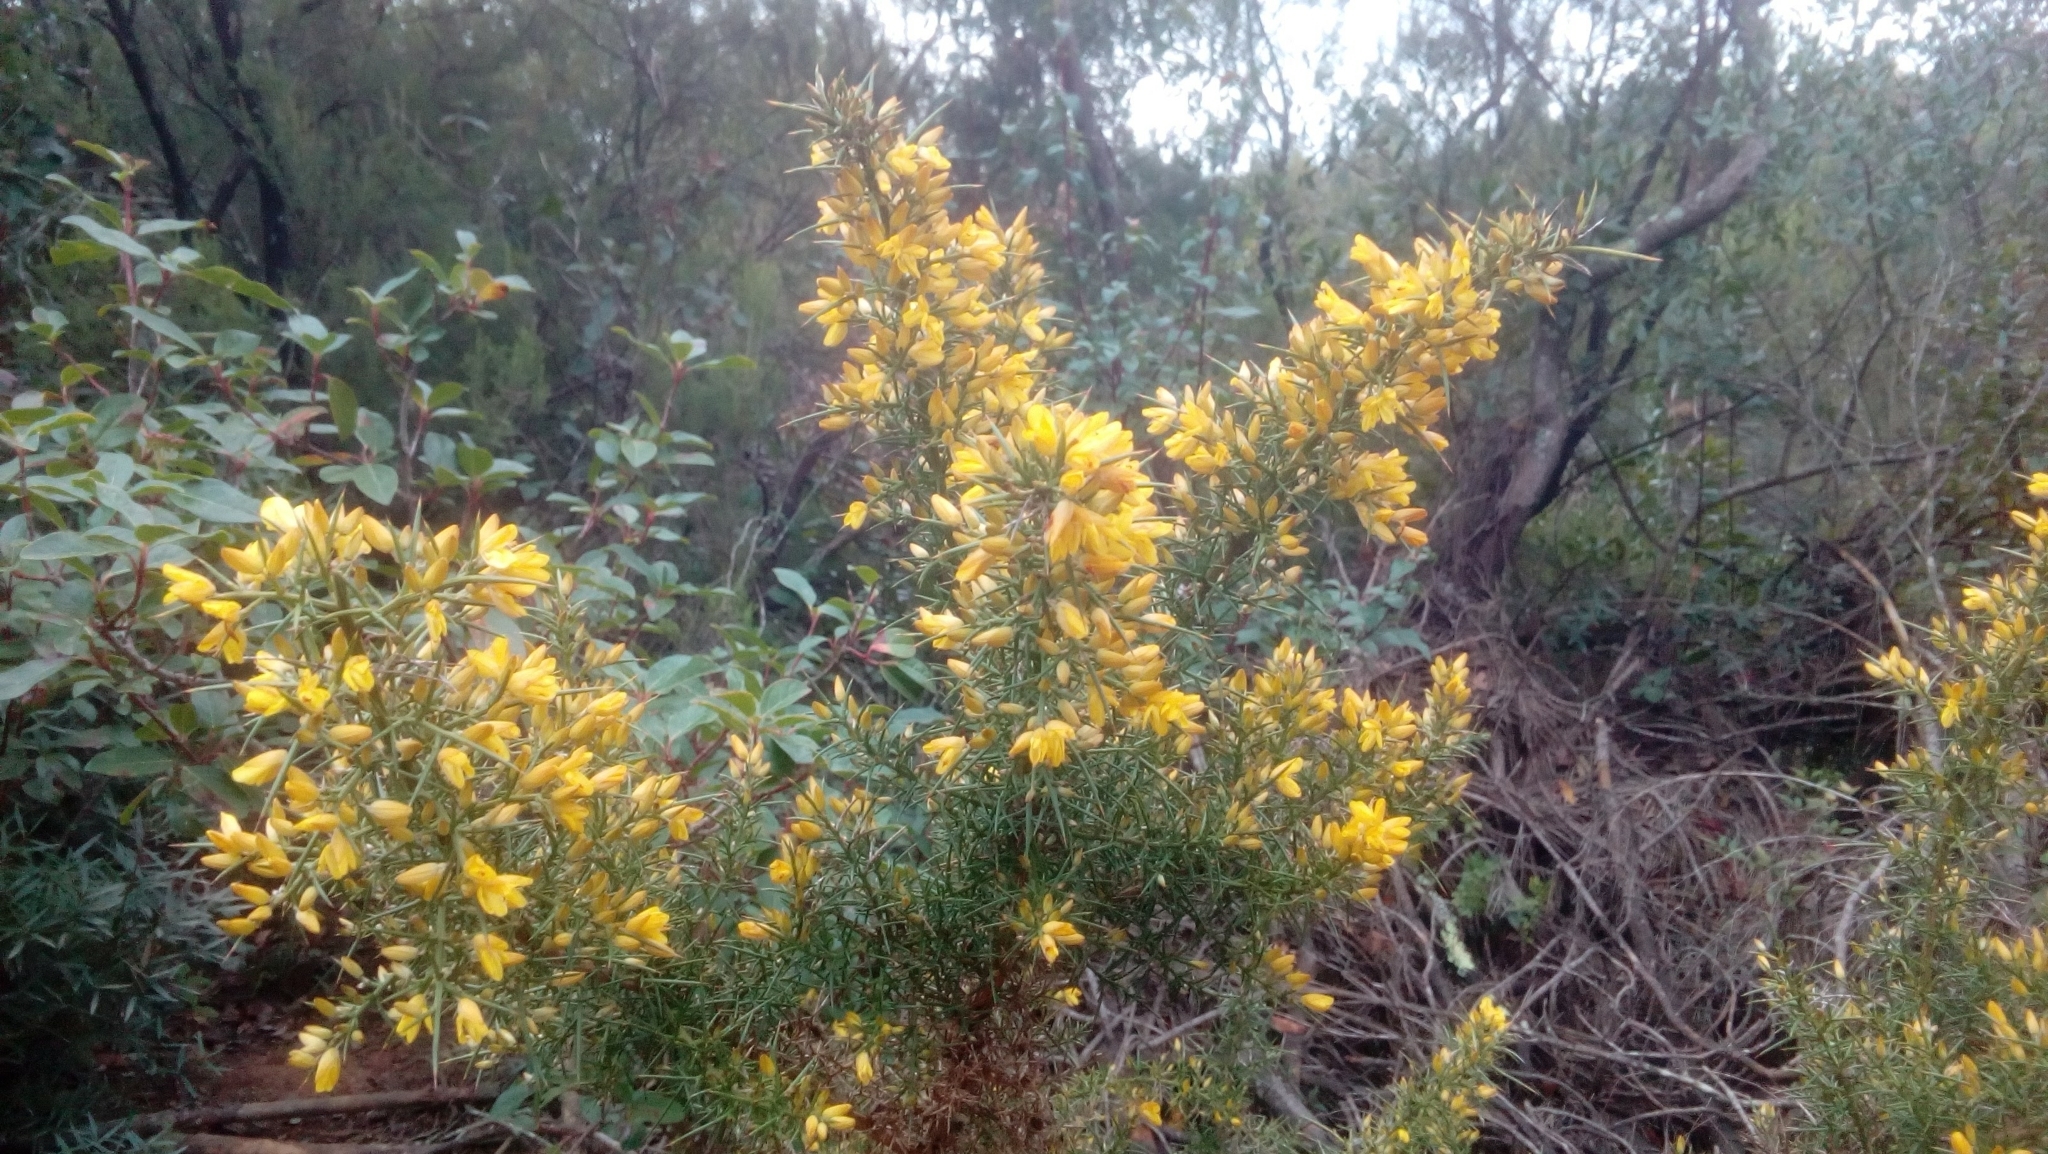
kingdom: Plantae
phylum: Tracheophyta
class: Magnoliopsida
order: Fabales
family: Fabaceae
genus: Ulex
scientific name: Ulex parviflorus
